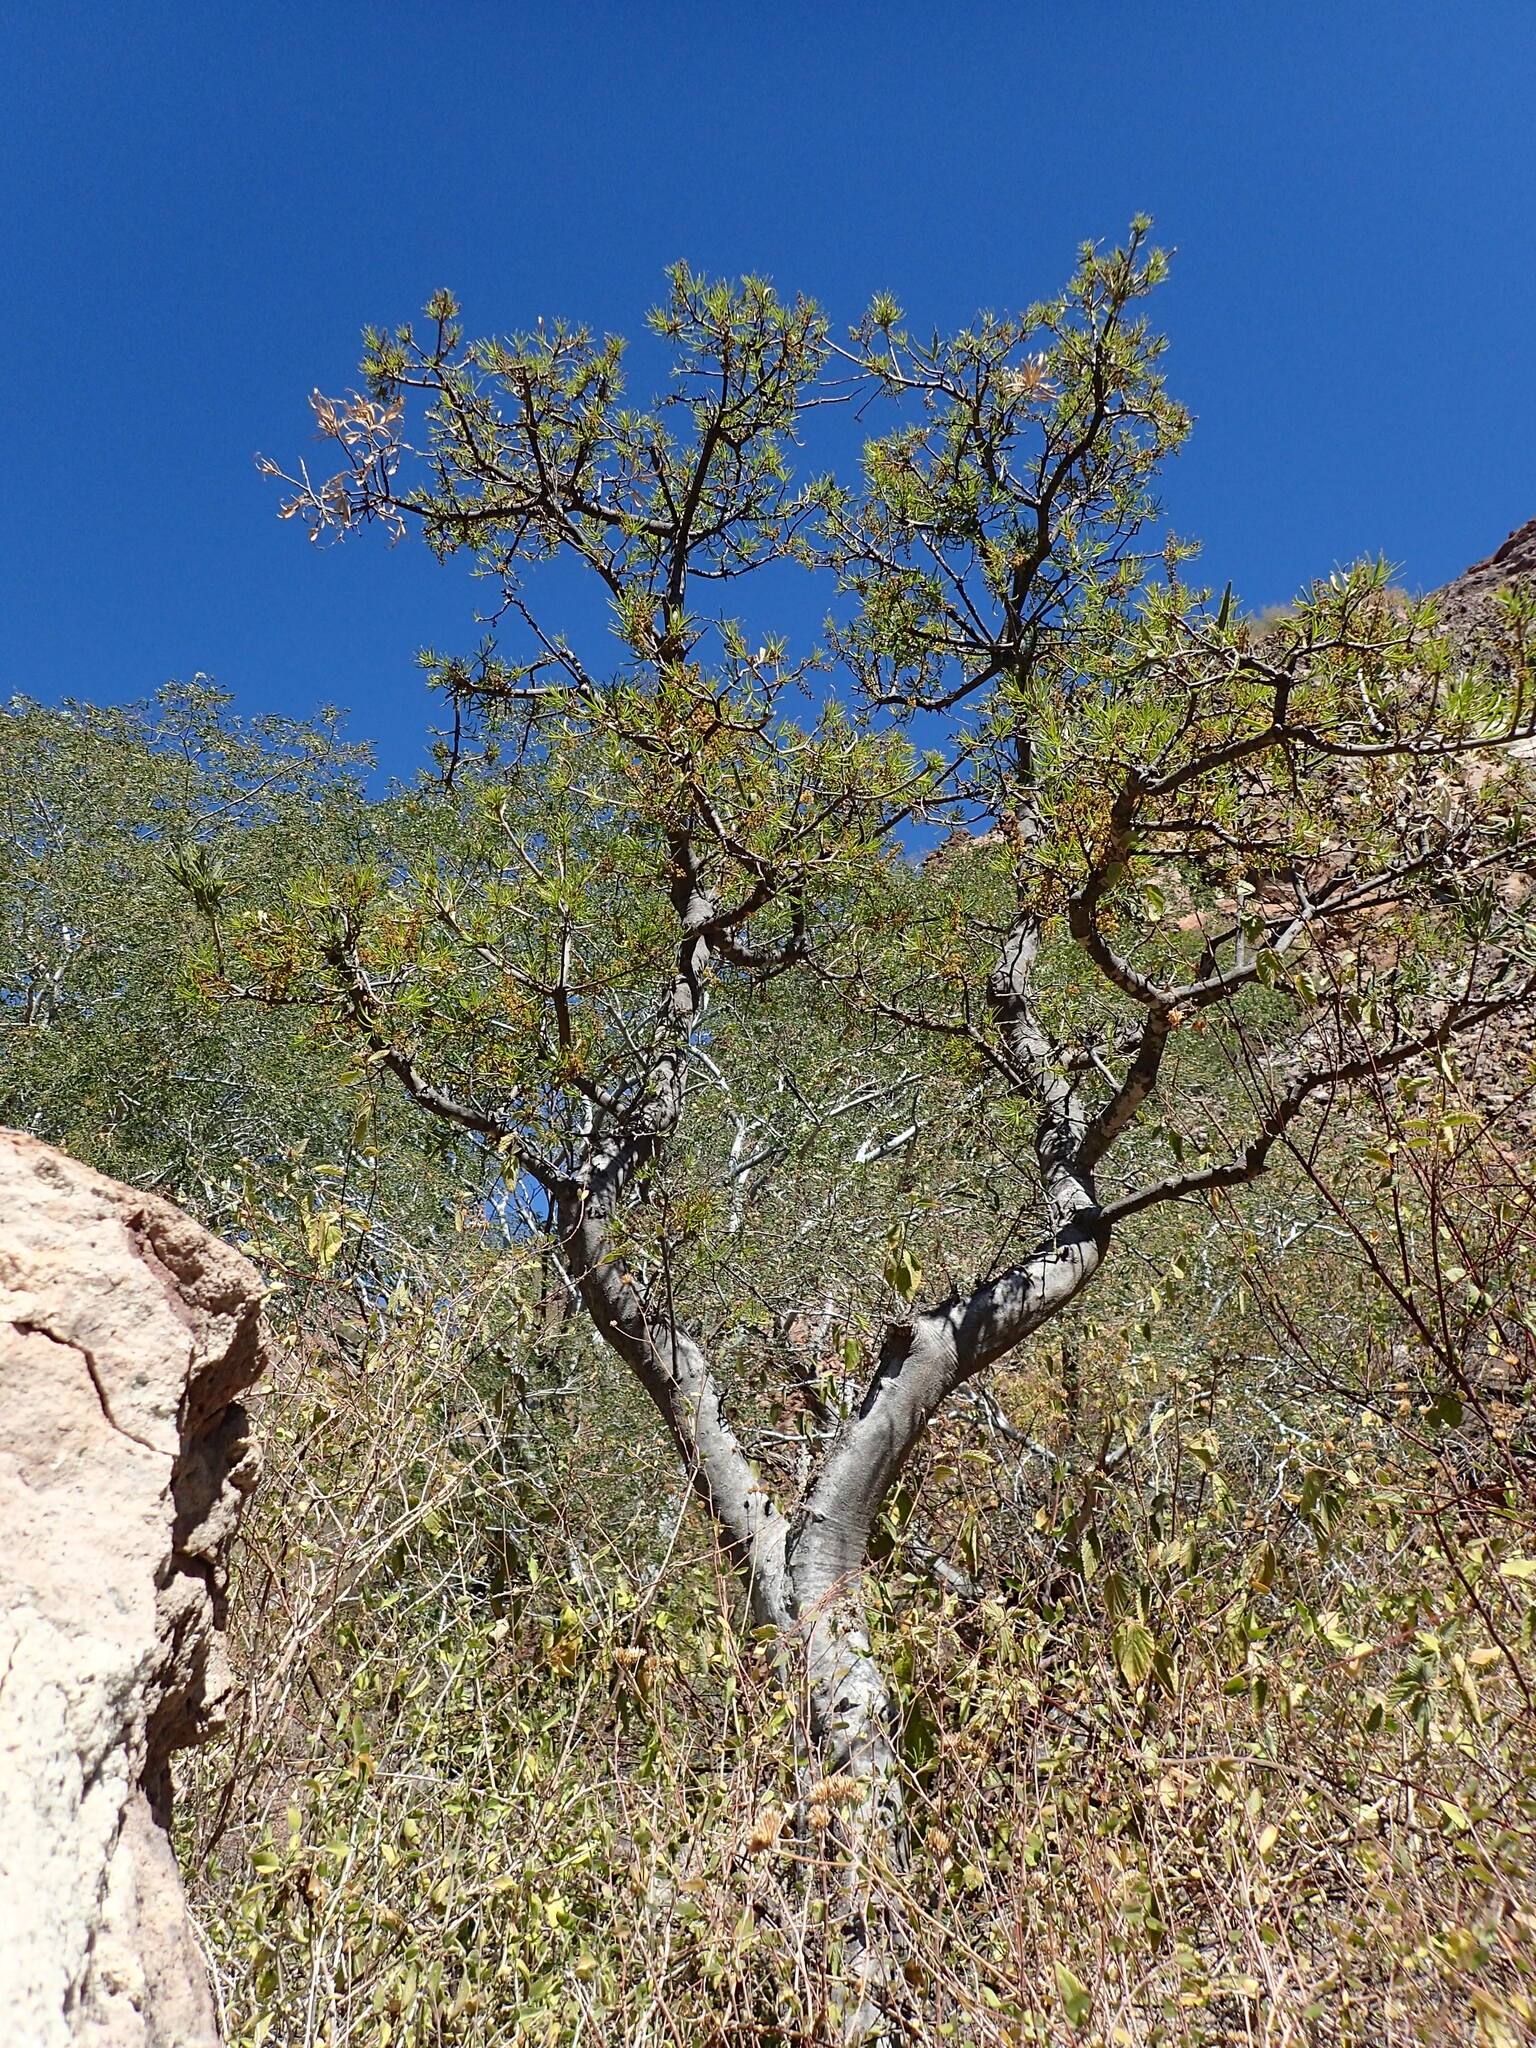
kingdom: Plantae
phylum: Tracheophyta
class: Magnoliopsida
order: Brassicales
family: Stixaceae
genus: Forchhammeria
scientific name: Forchhammeria watsonii
